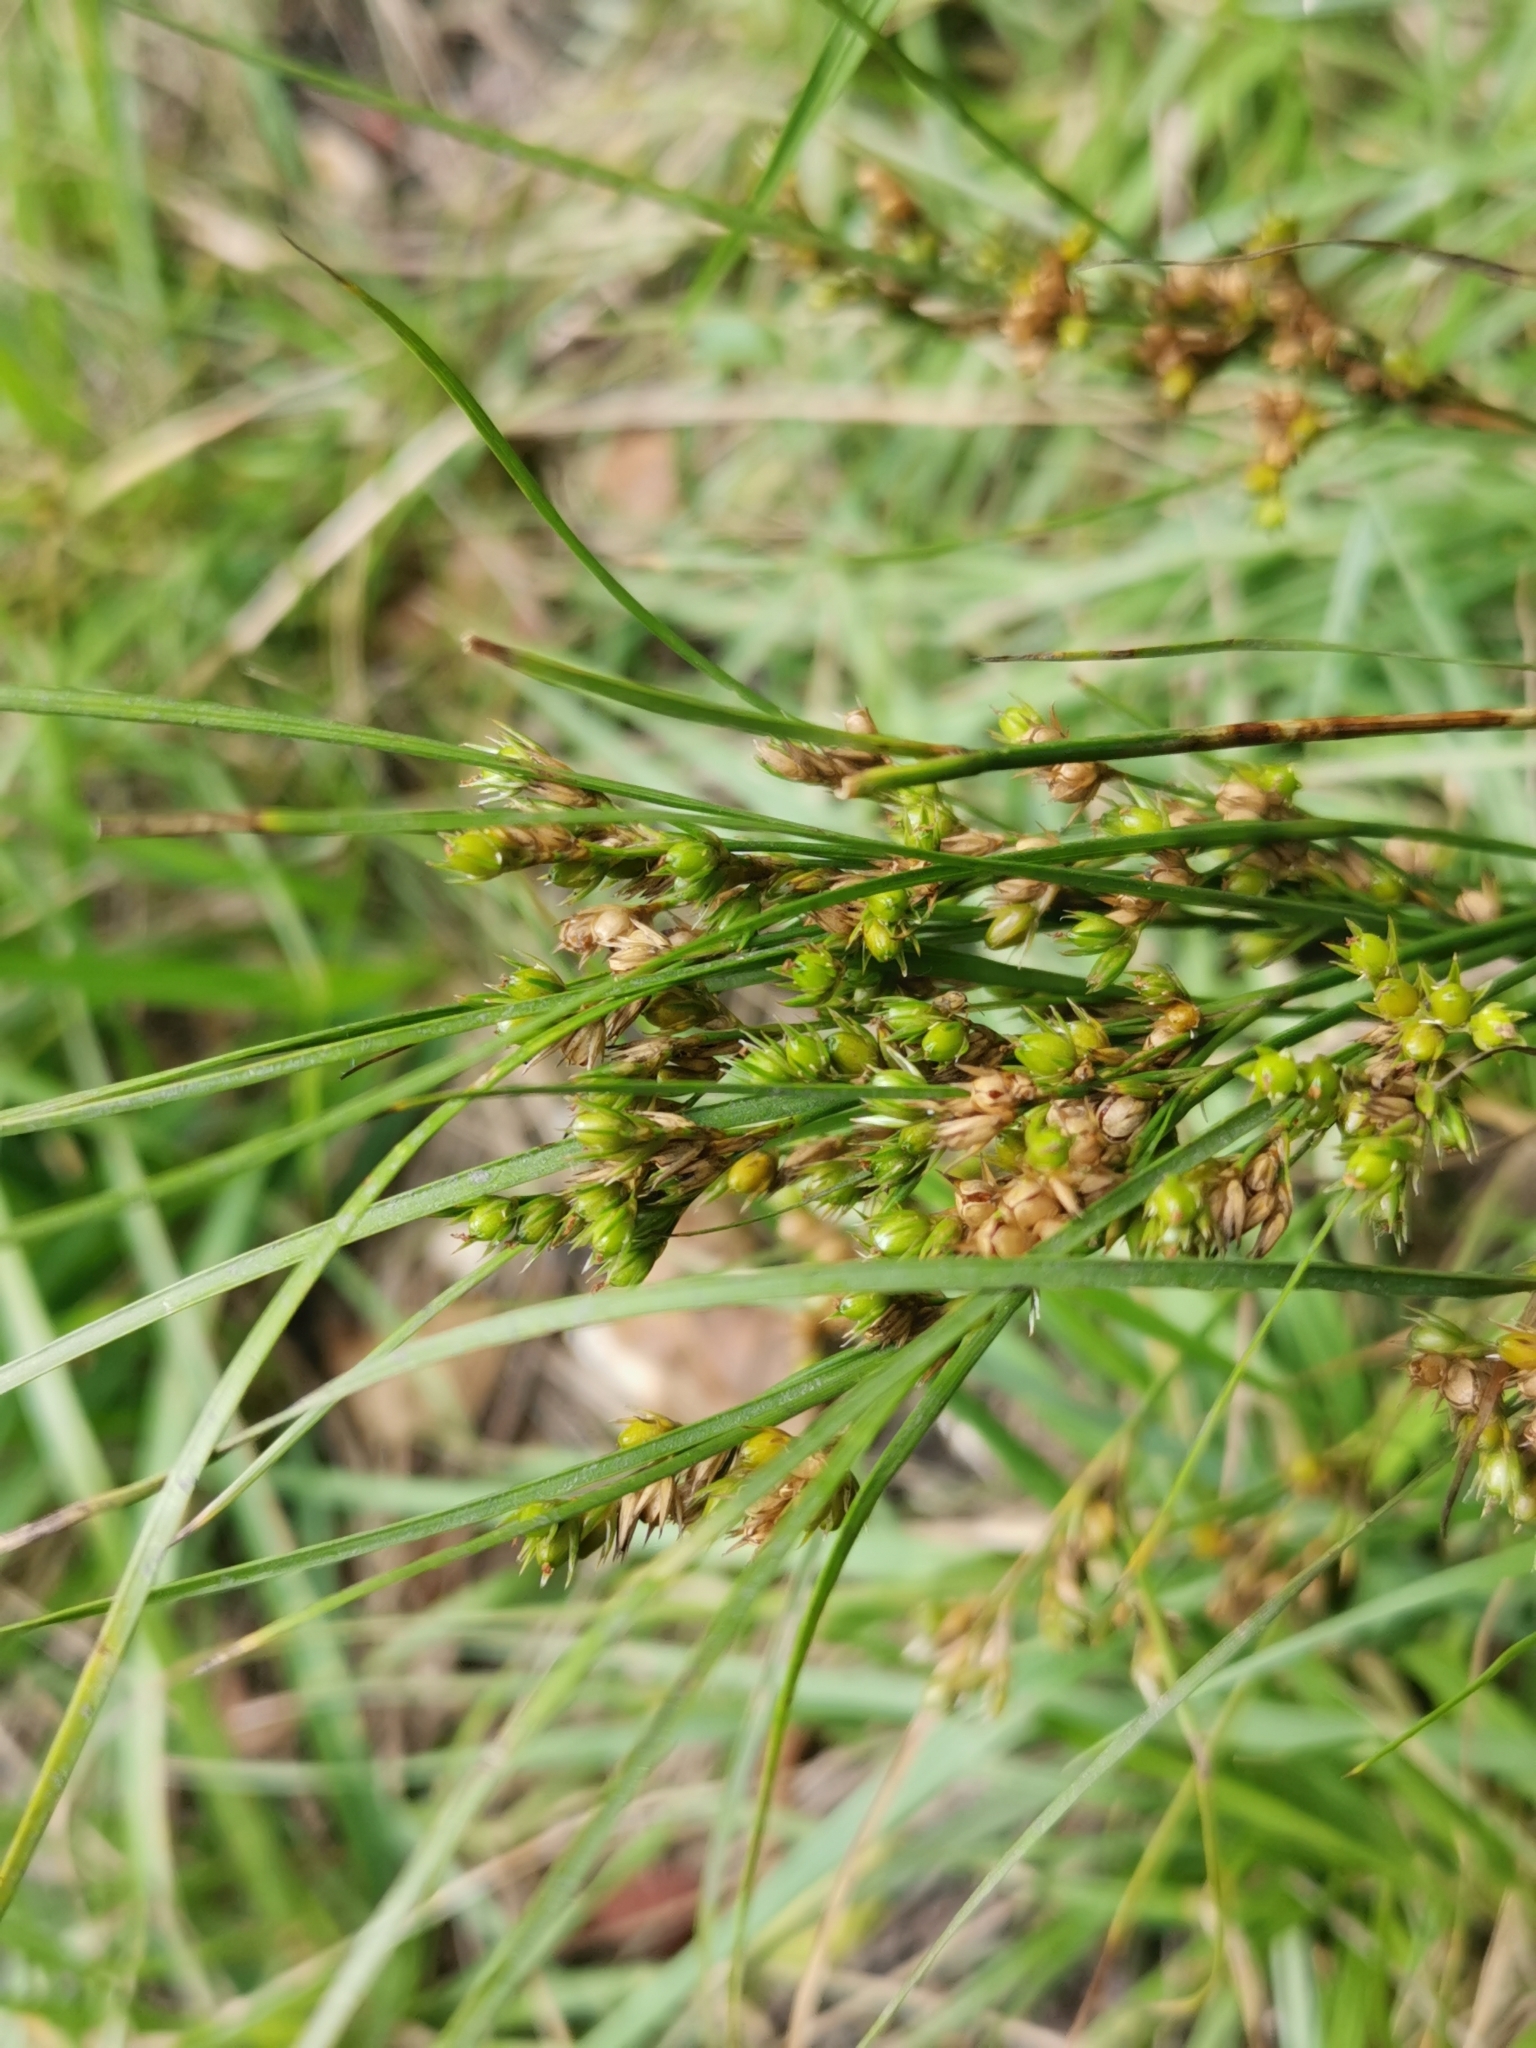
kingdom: Plantae
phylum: Tracheophyta
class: Liliopsida
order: Poales
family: Juncaceae
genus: Juncus
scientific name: Juncus tenuis
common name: Slender rush
